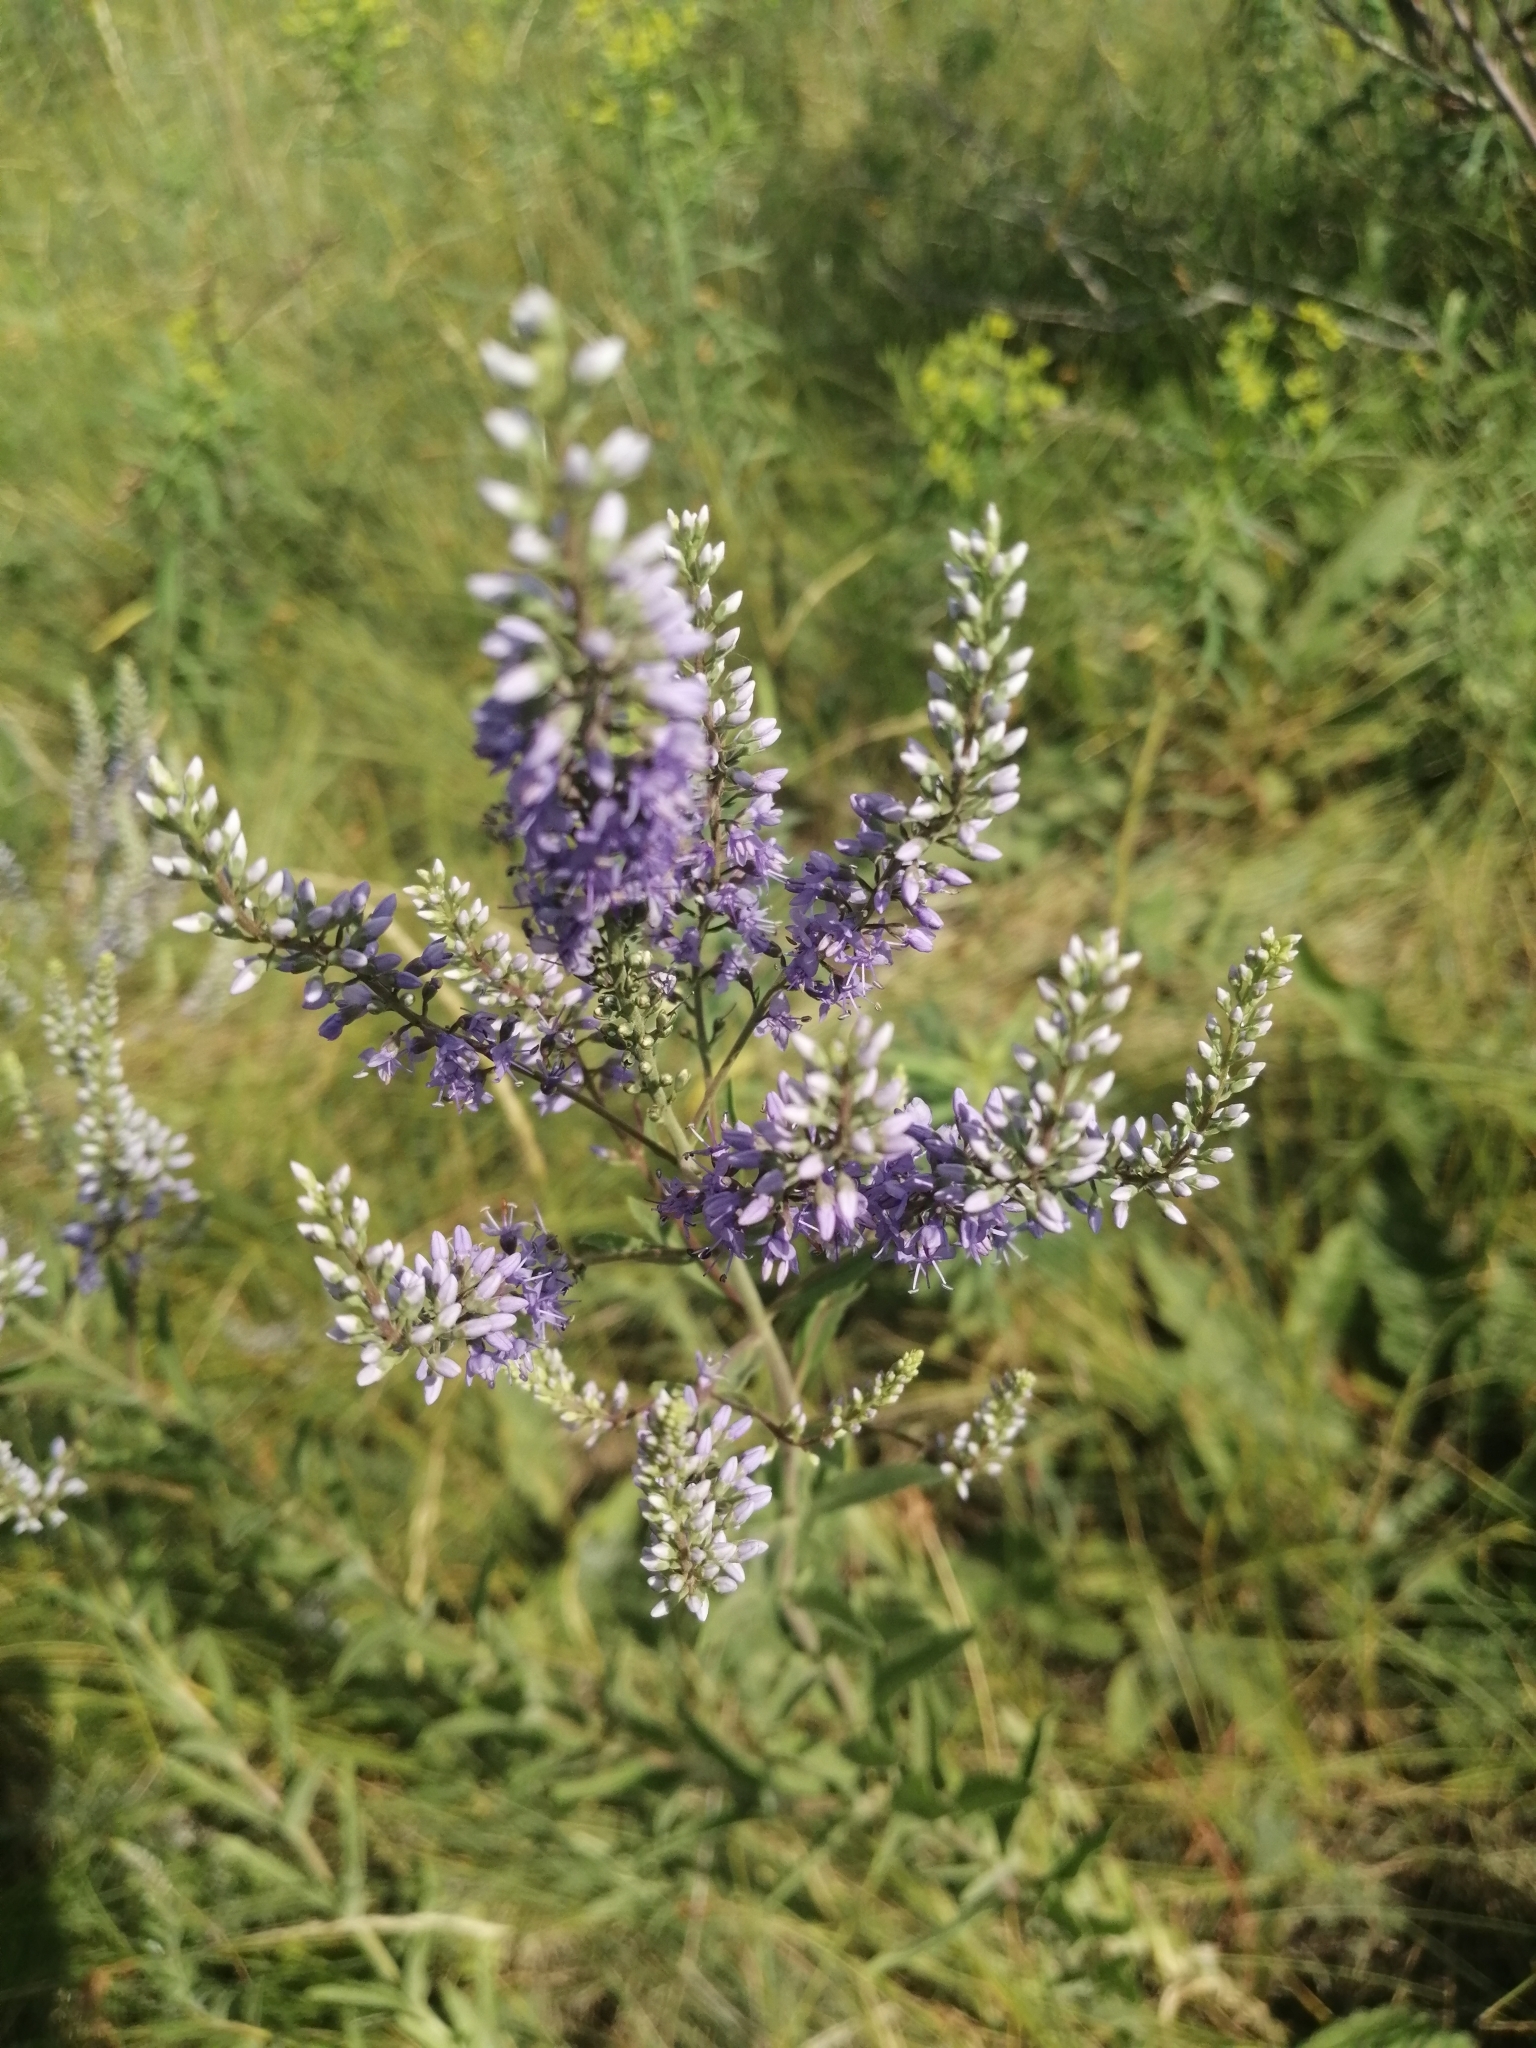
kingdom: Plantae
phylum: Tracheophyta
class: Magnoliopsida
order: Lamiales
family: Plantaginaceae
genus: Veronica
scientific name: Veronica spuria
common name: Bastard speedwell
